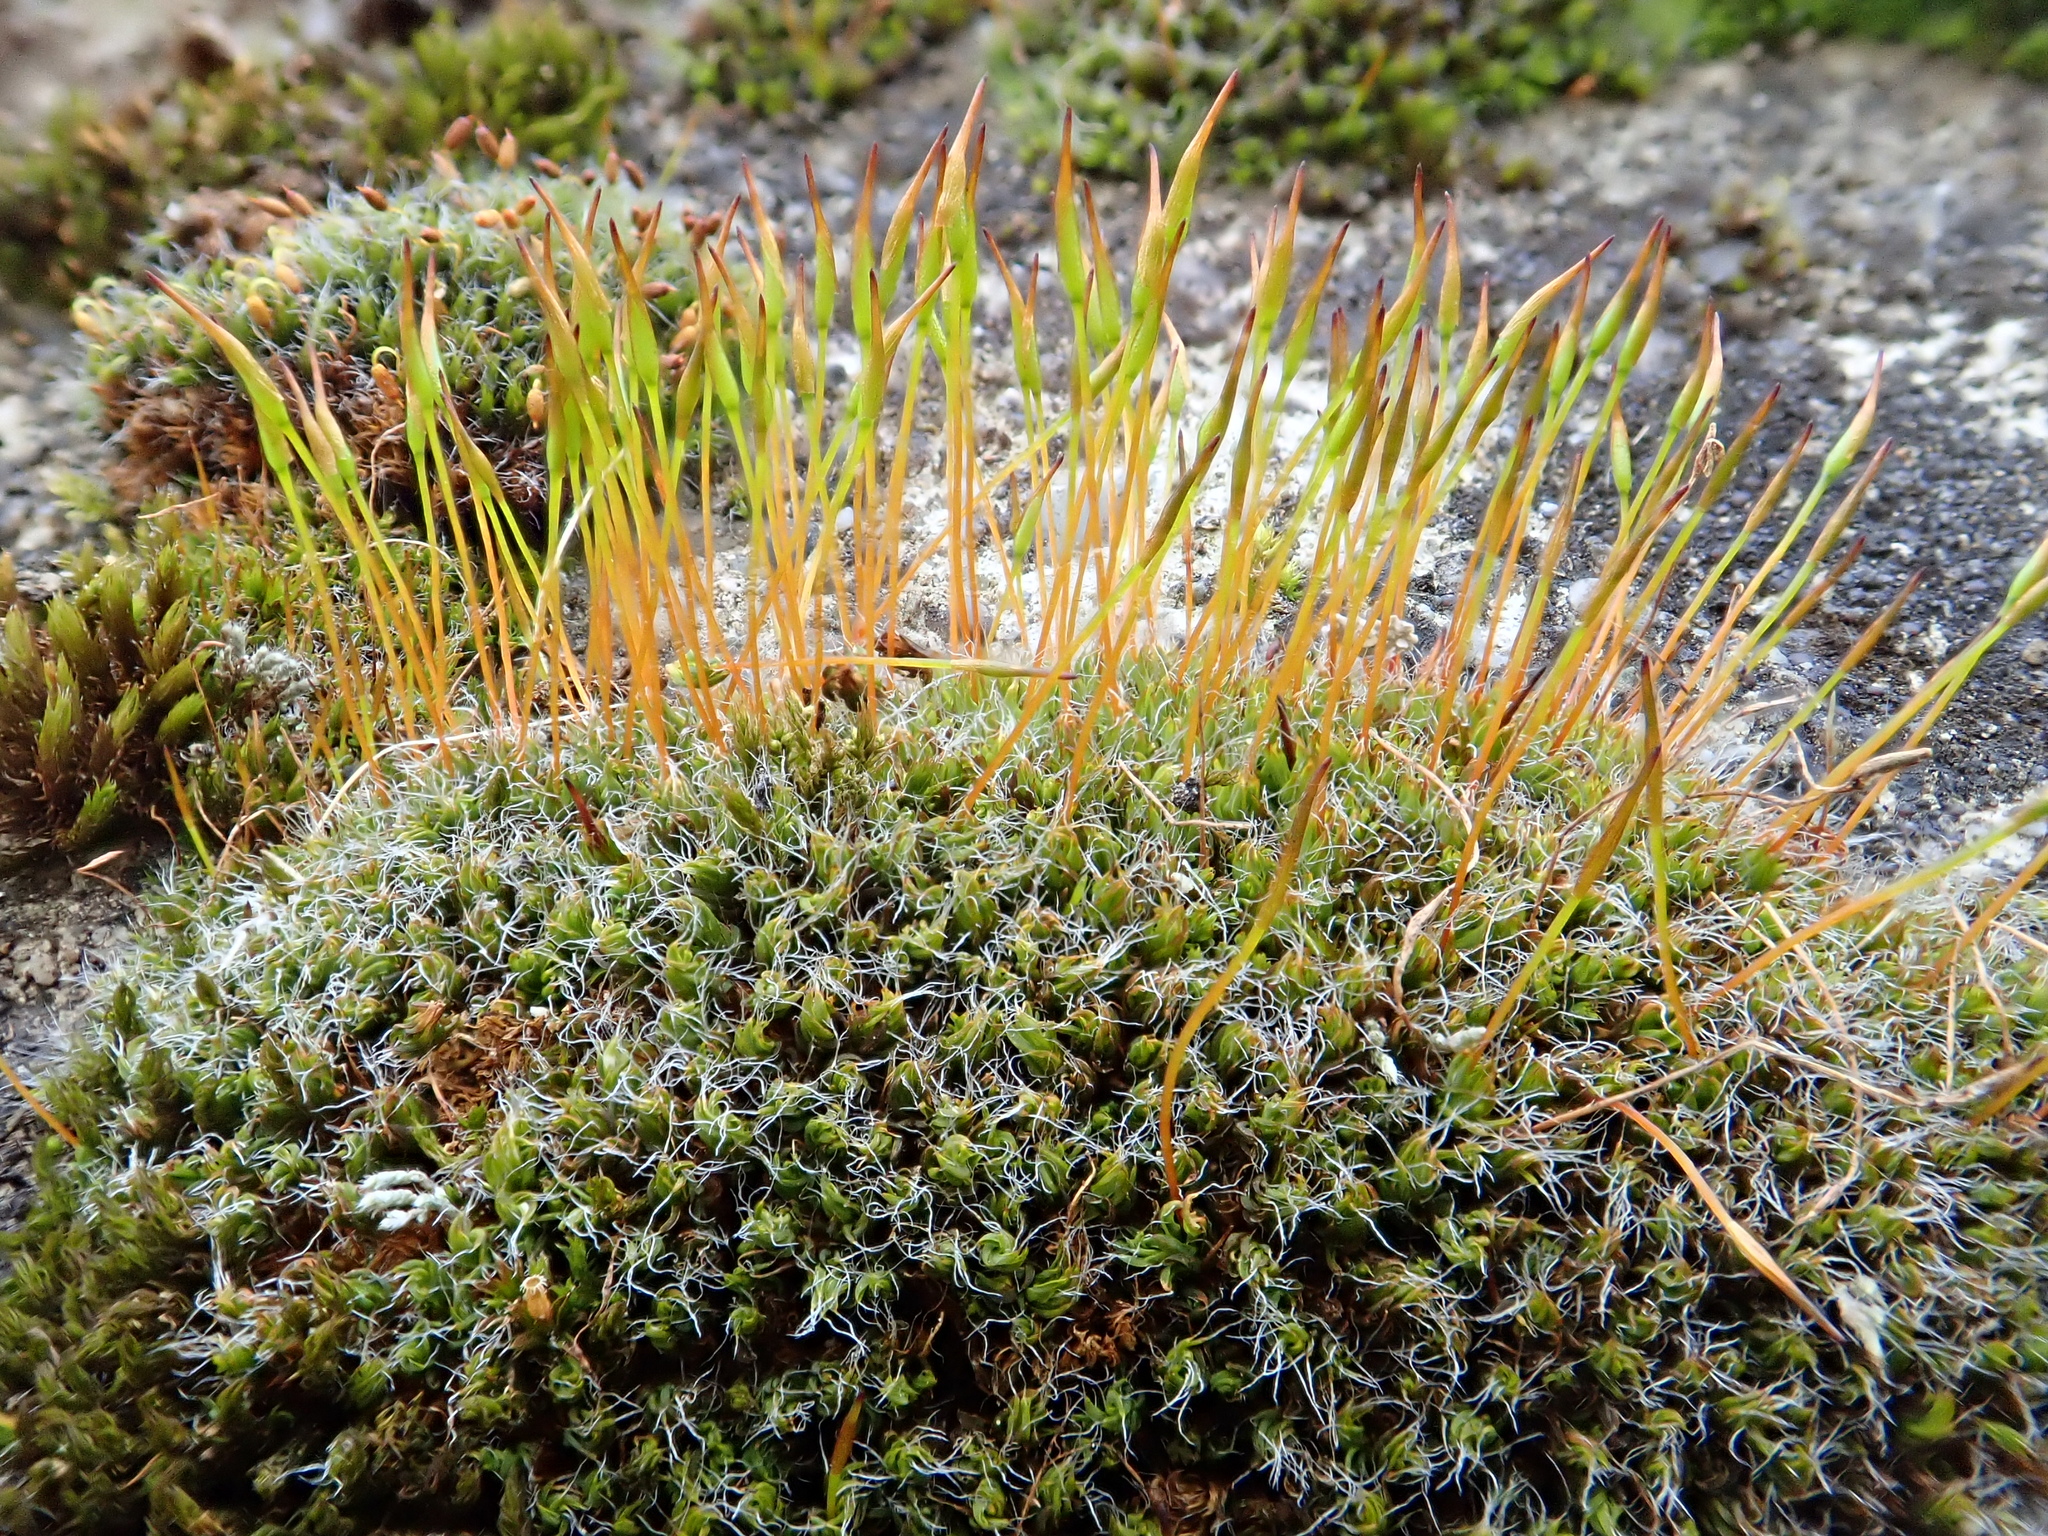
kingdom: Plantae
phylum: Bryophyta
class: Bryopsida
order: Pottiales
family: Pottiaceae
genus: Tortula
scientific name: Tortula muralis
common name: Wall screw-moss
